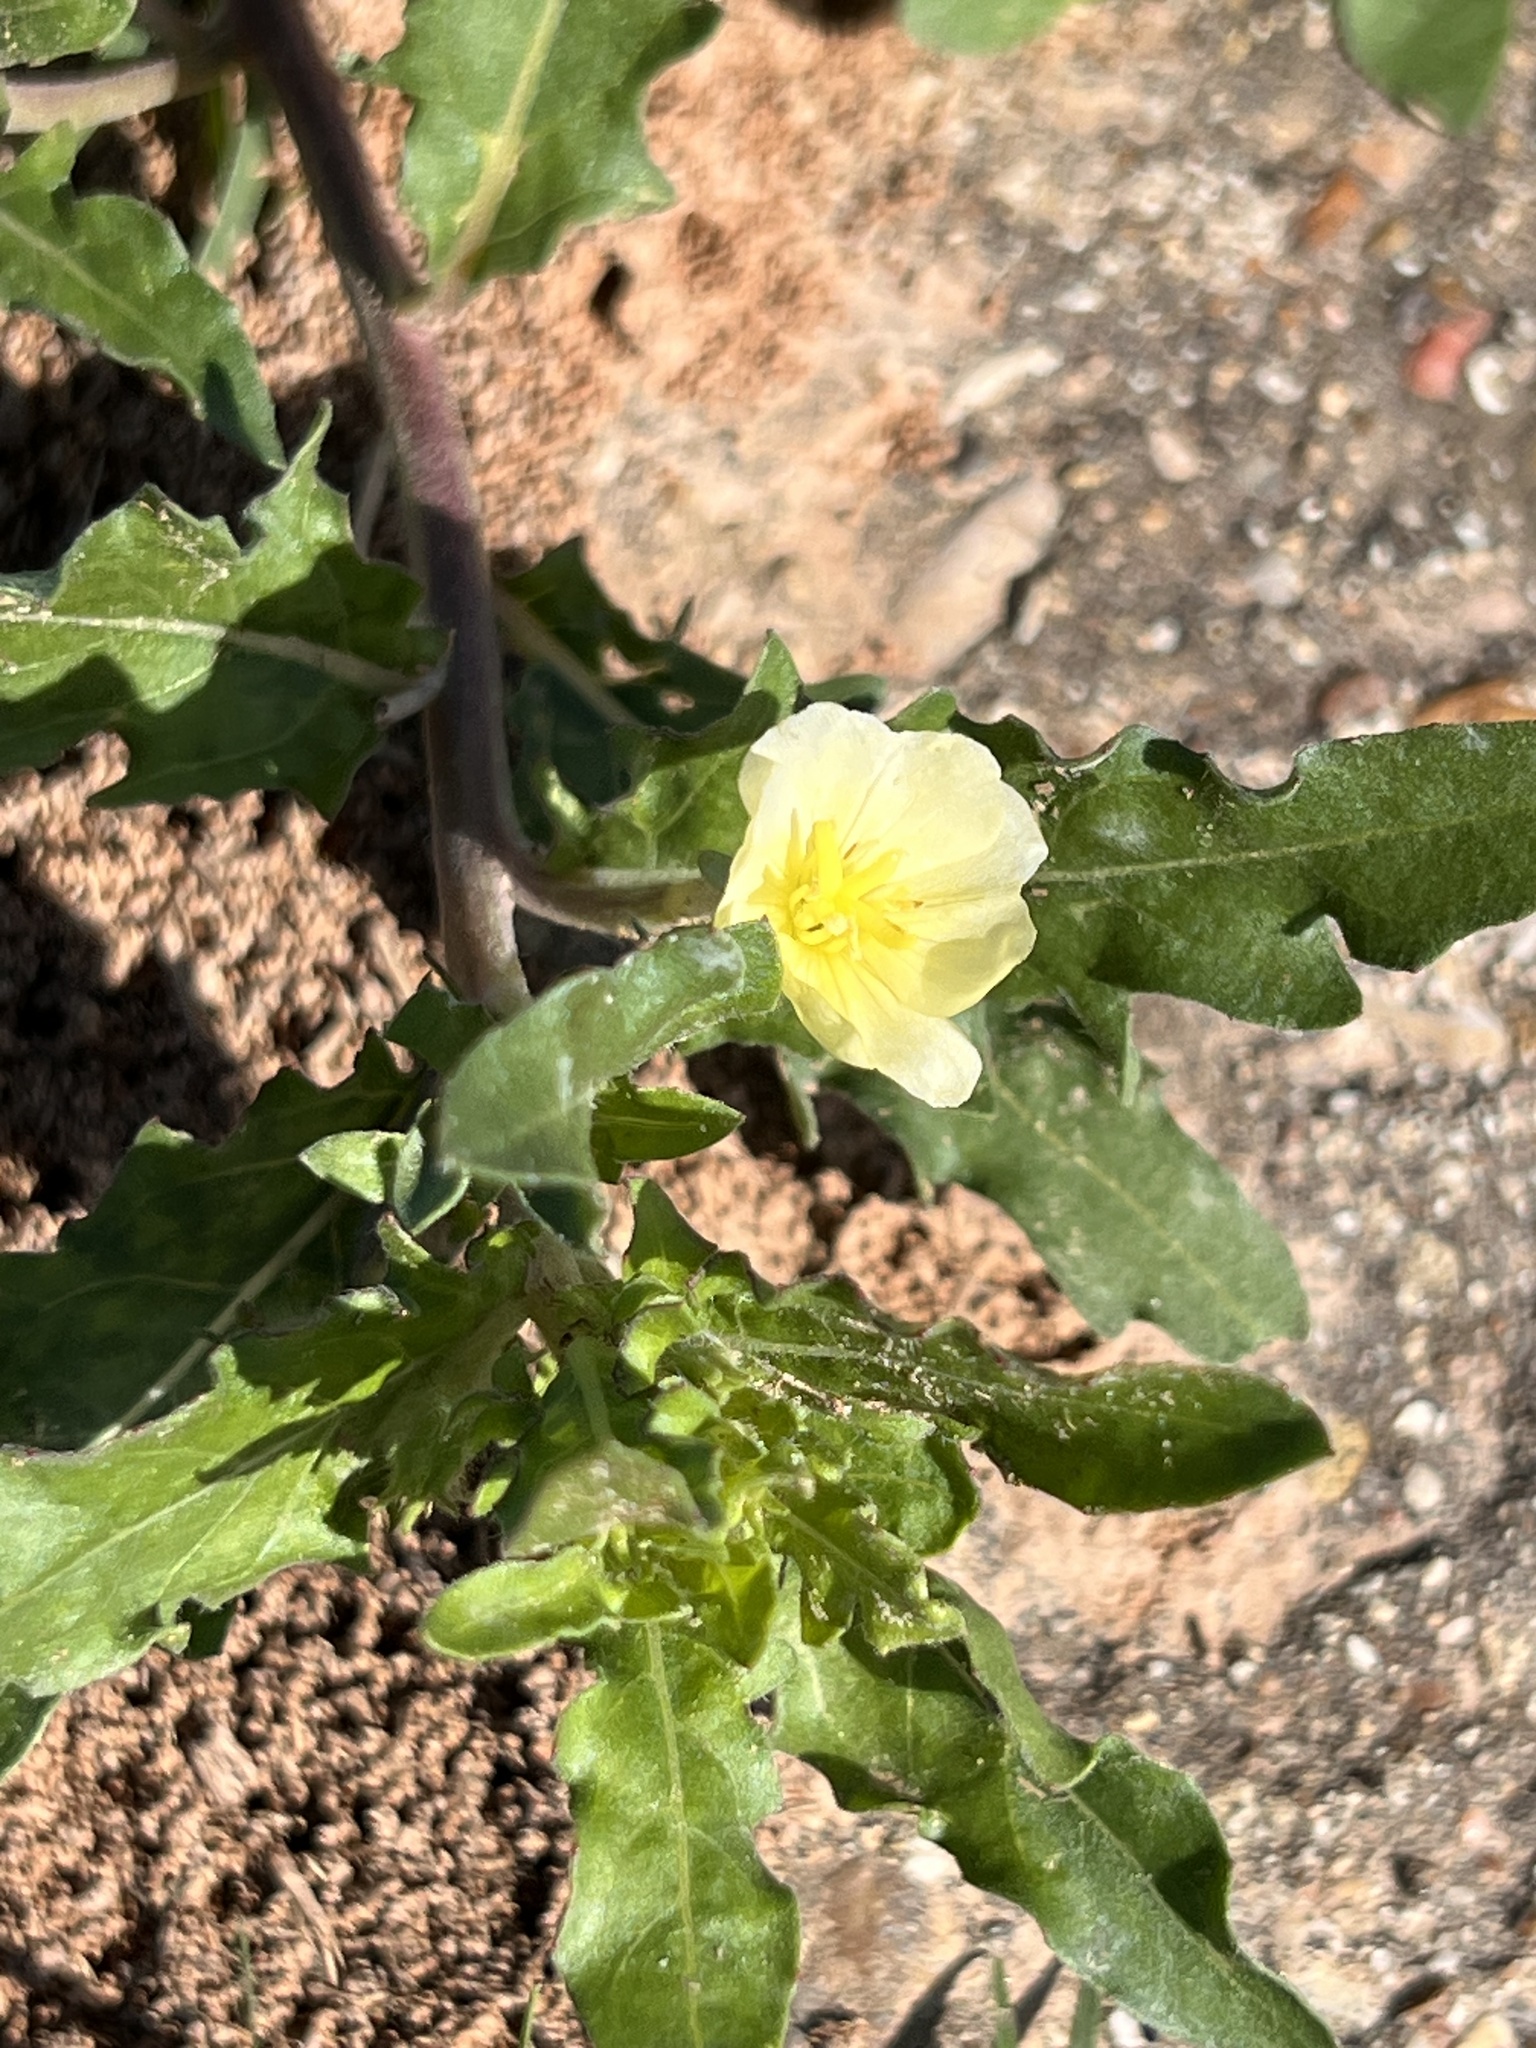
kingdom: Plantae
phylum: Tracheophyta
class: Magnoliopsida
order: Myrtales
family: Onagraceae
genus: Oenothera
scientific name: Oenothera laciniata
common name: Cut-leaved evening-primrose
